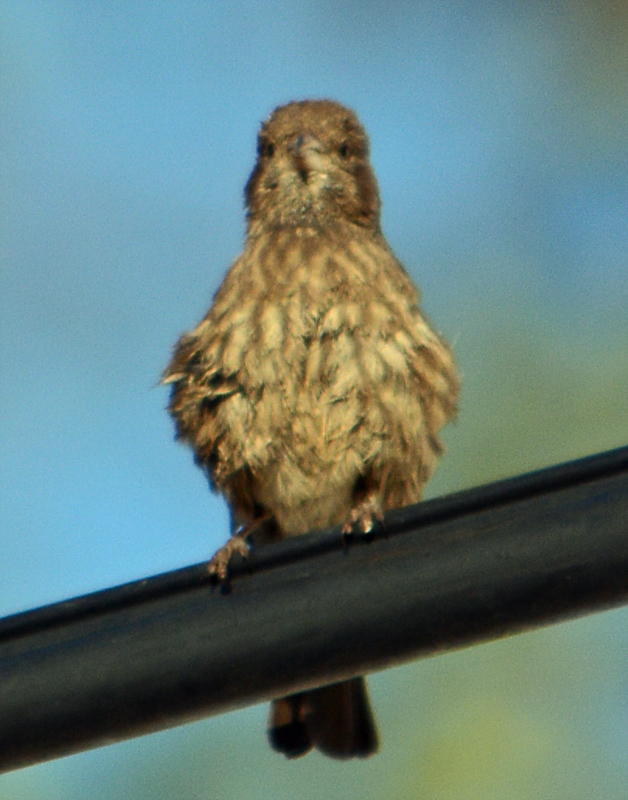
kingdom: Animalia
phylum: Chordata
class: Aves
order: Passeriformes
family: Fringillidae
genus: Haemorhous
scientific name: Haemorhous mexicanus
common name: House finch
